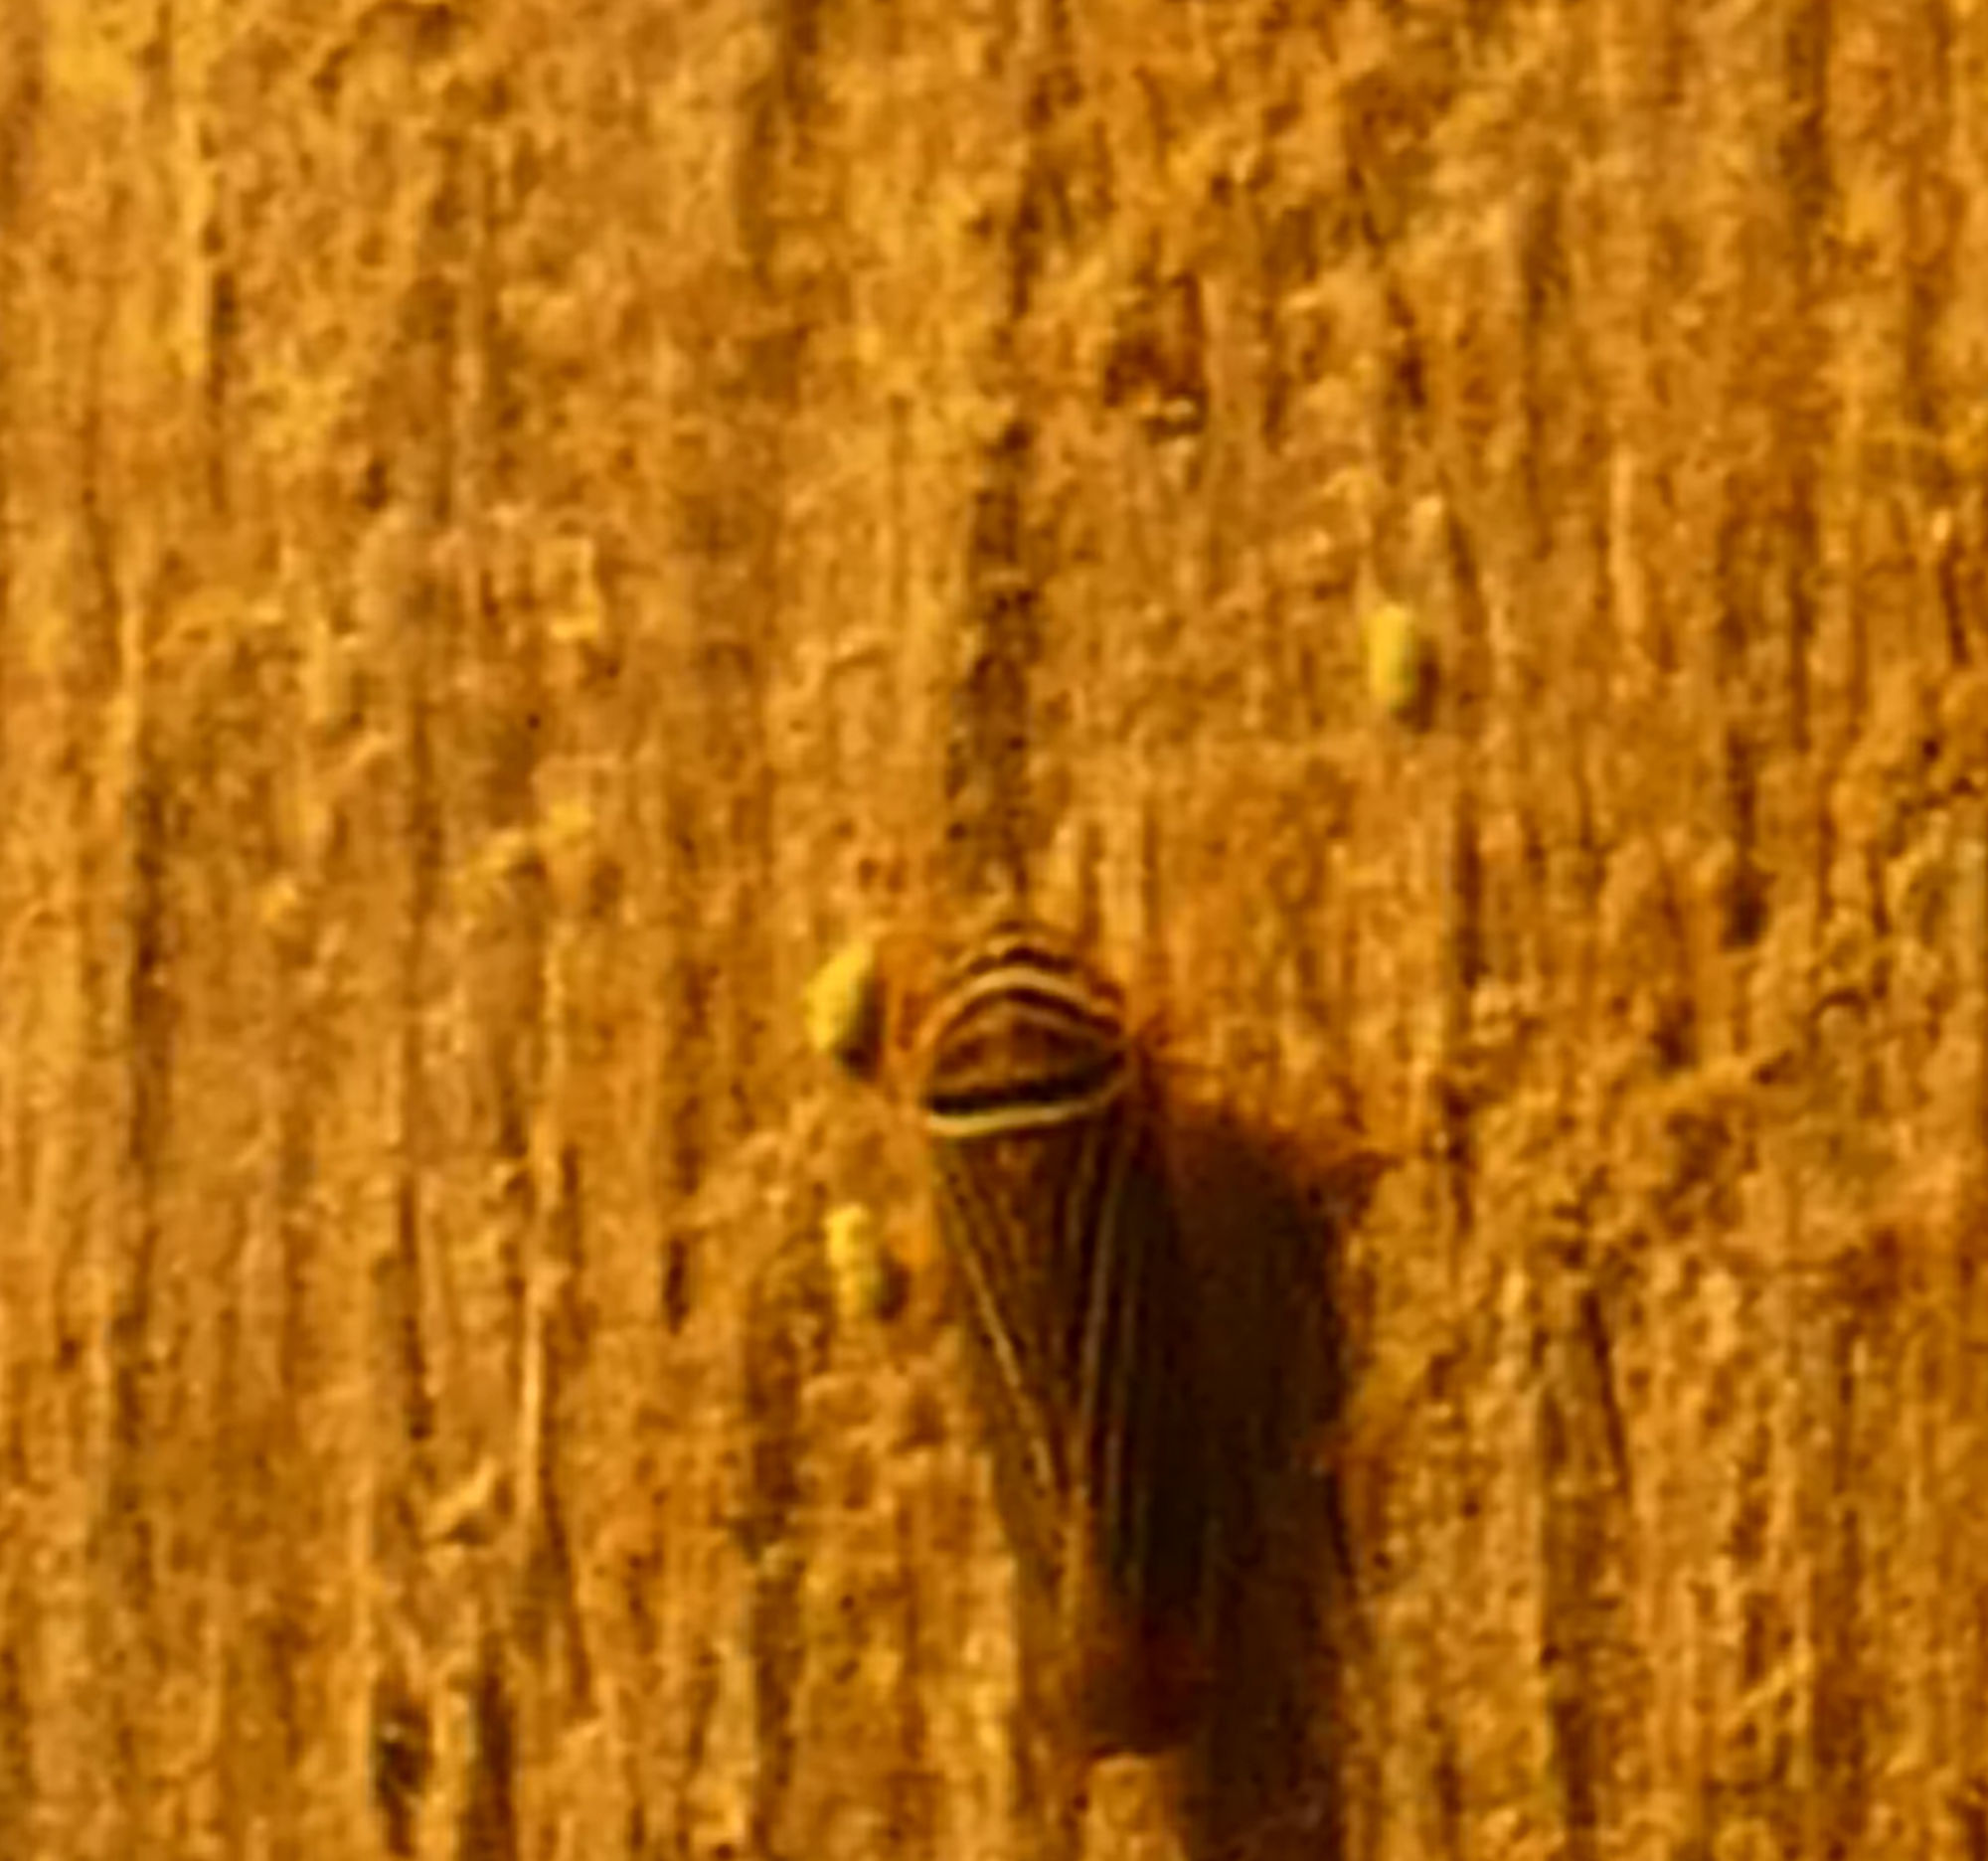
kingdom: Animalia
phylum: Arthropoda
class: Insecta
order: Hemiptera
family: Cicadellidae
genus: Tylozygus
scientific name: Tylozygus bifidus
